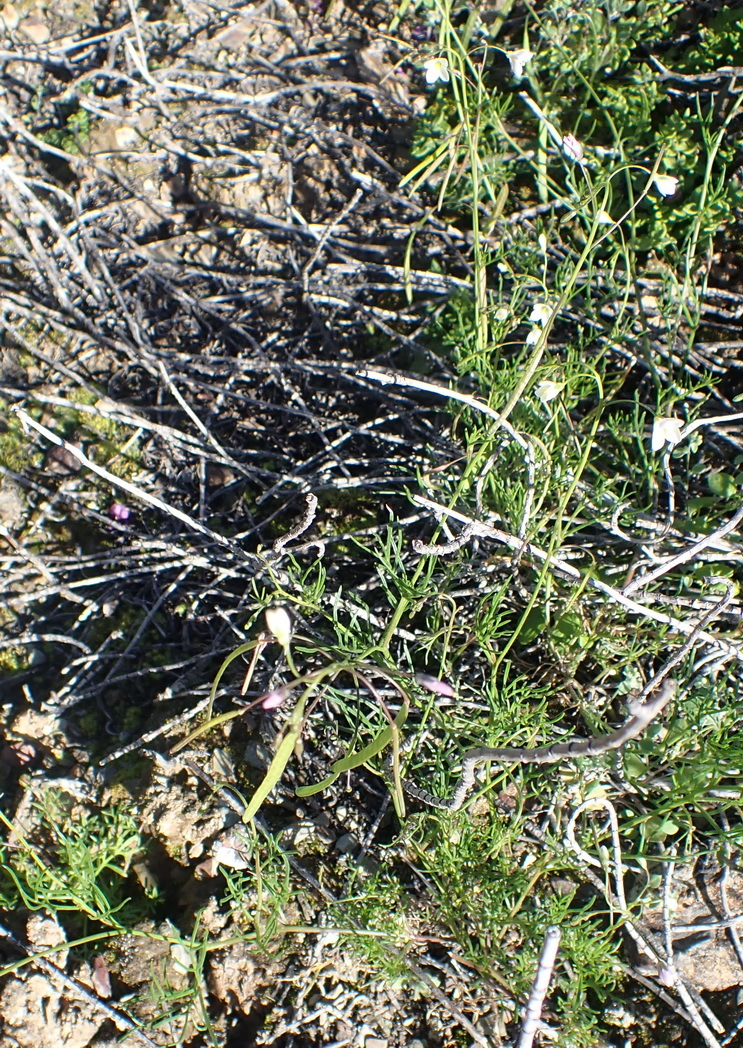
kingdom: Plantae
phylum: Tracheophyta
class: Magnoliopsida
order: Brassicales
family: Brassicaceae
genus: Heliophila
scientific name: Heliophila crithmifolia
